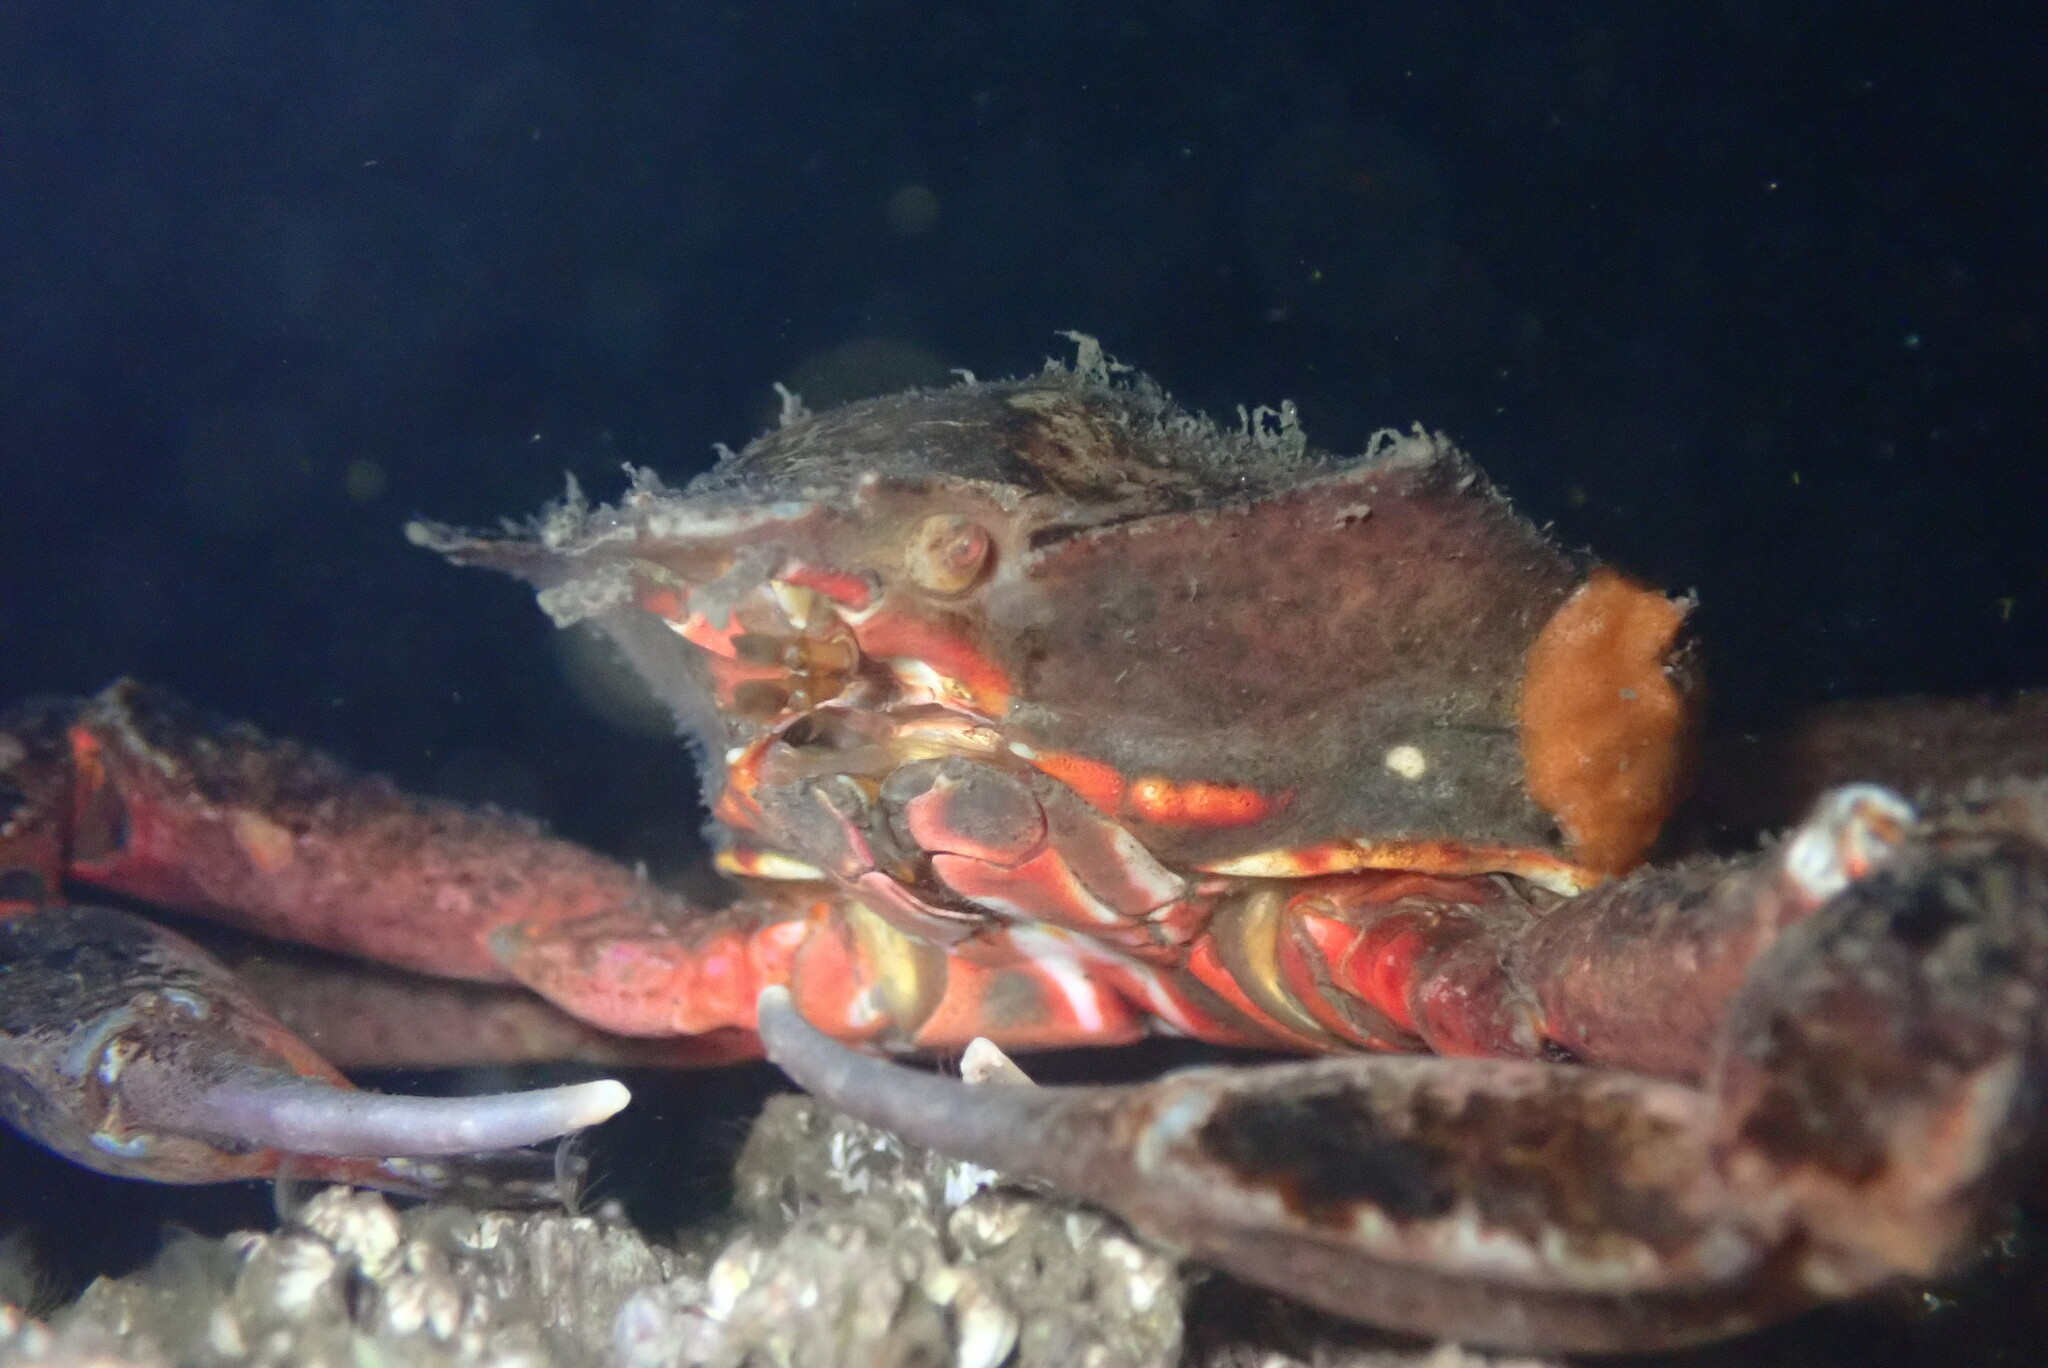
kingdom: Animalia
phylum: Arthropoda
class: Malacostraca
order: Decapoda
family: Epialtidae
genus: Pugettia
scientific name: Pugettia producta
